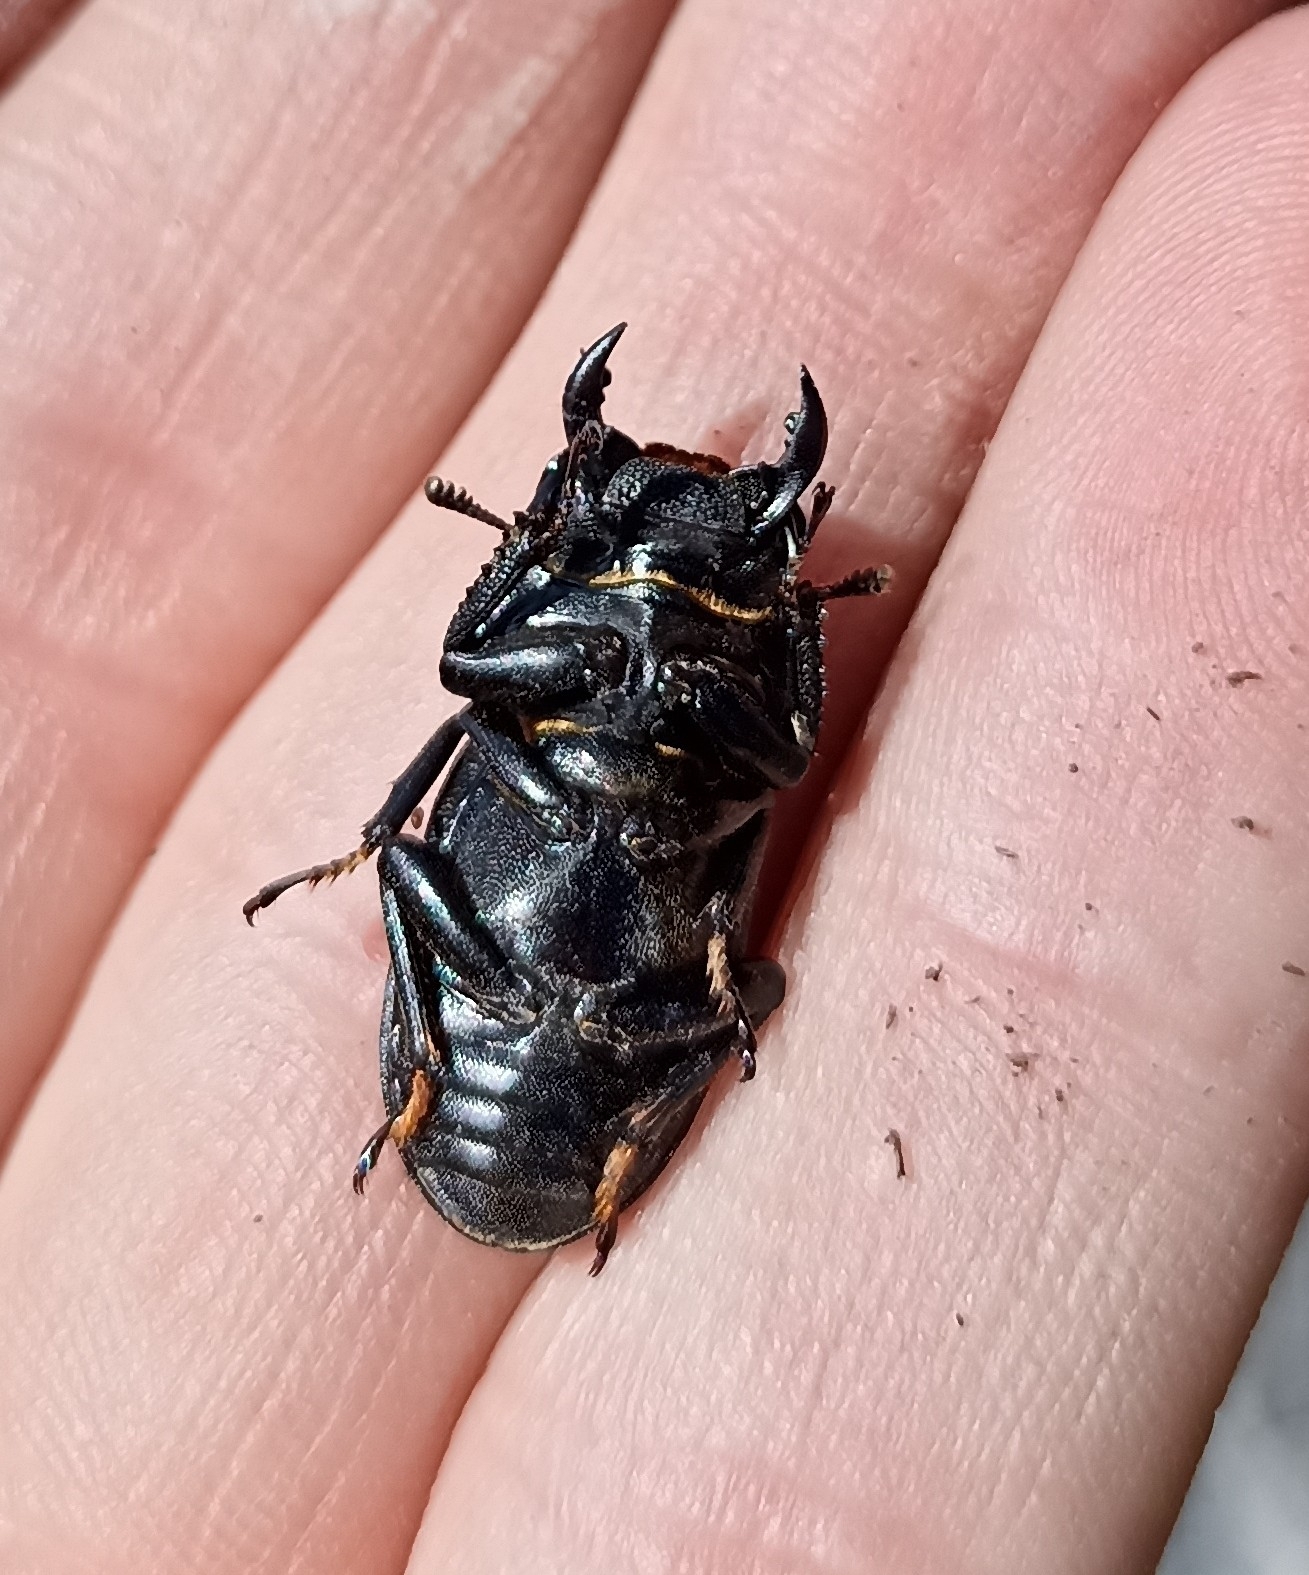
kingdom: Animalia
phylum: Arthropoda
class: Insecta
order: Coleoptera
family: Lucanidae
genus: Dorcus
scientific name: Dorcus parallelipipedus
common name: Lesser stag beetle
